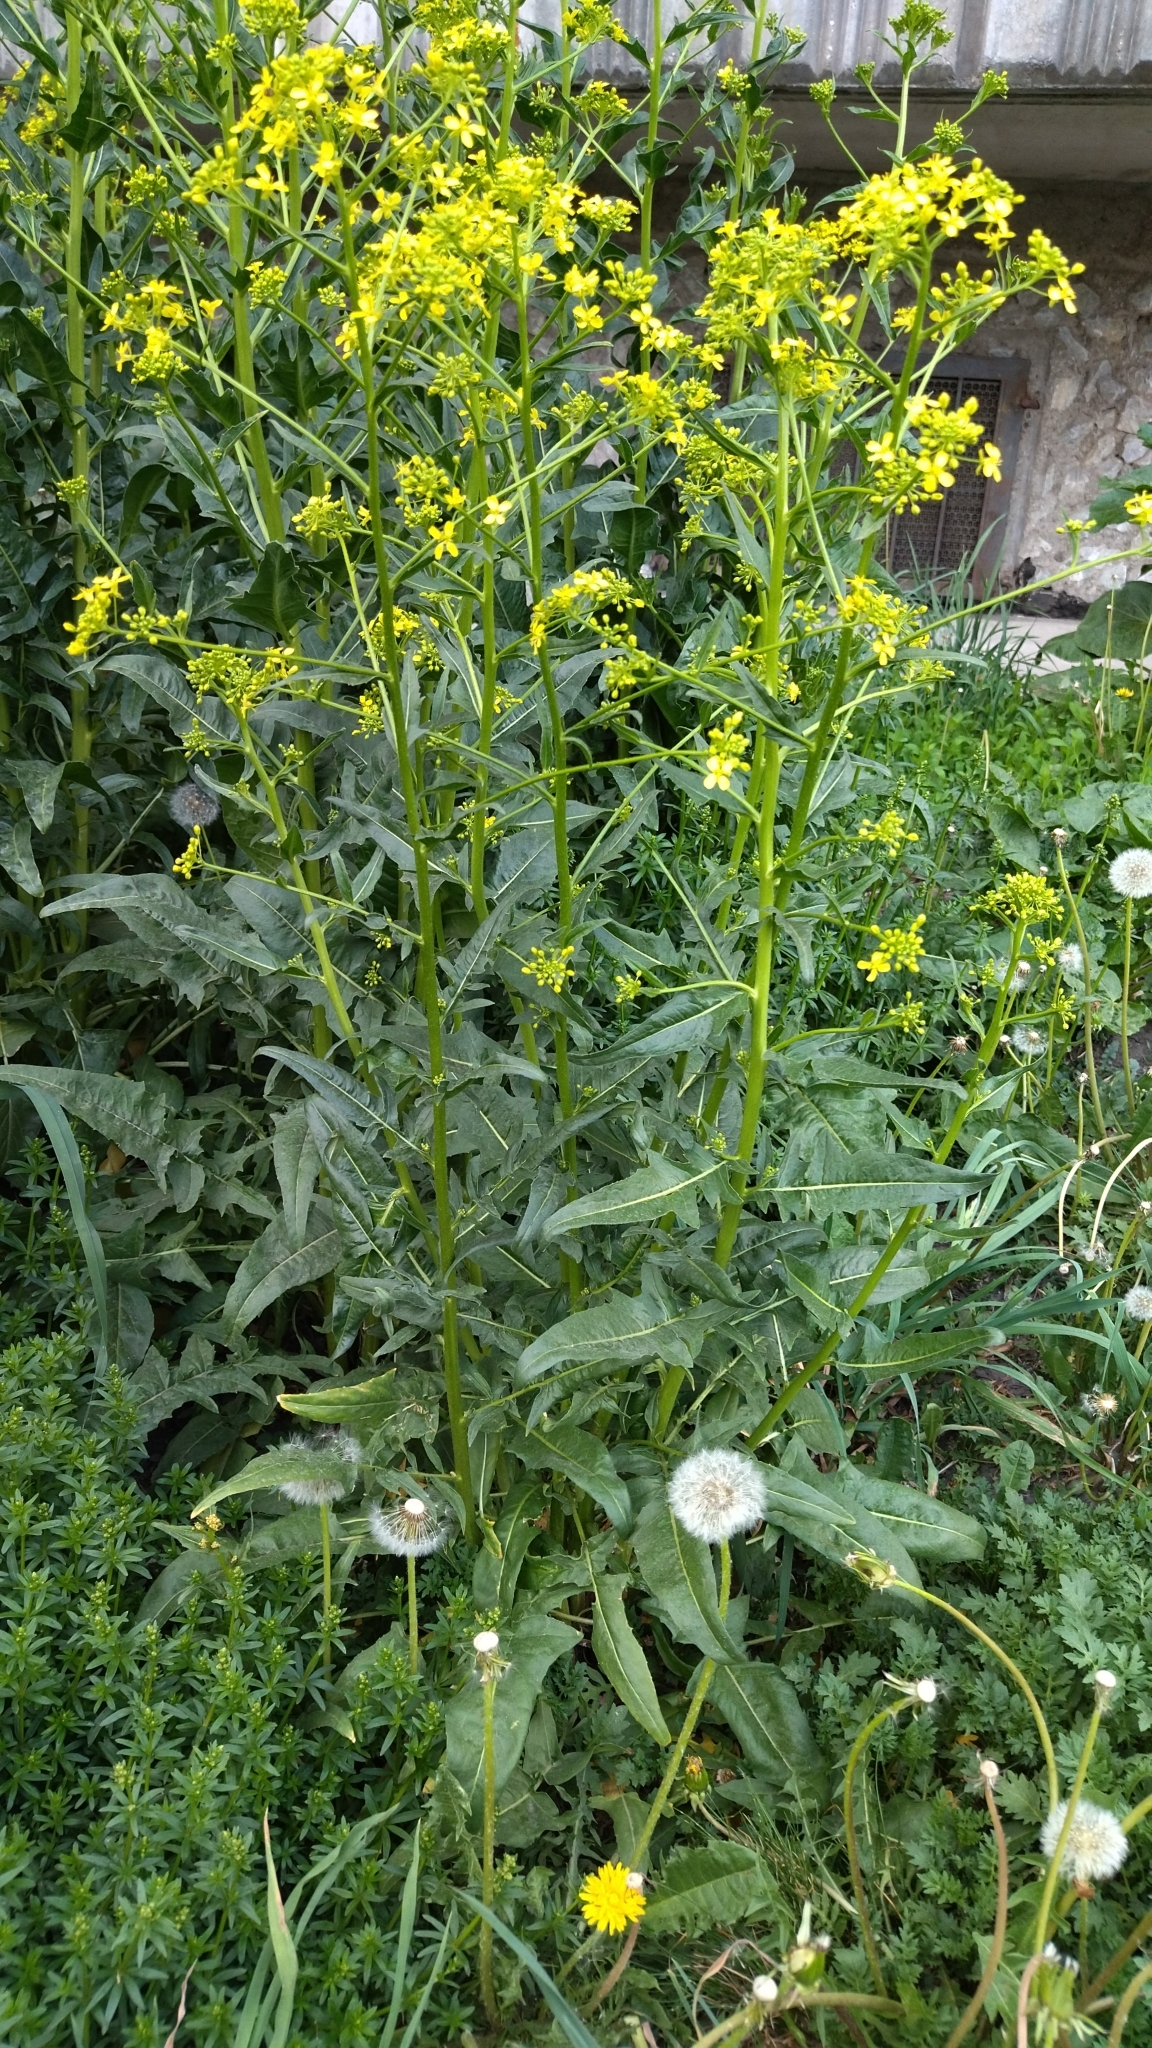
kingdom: Plantae
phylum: Tracheophyta
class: Magnoliopsida
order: Brassicales
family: Brassicaceae
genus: Bunias
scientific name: Bunias orientalis
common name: Warty-cabbage
